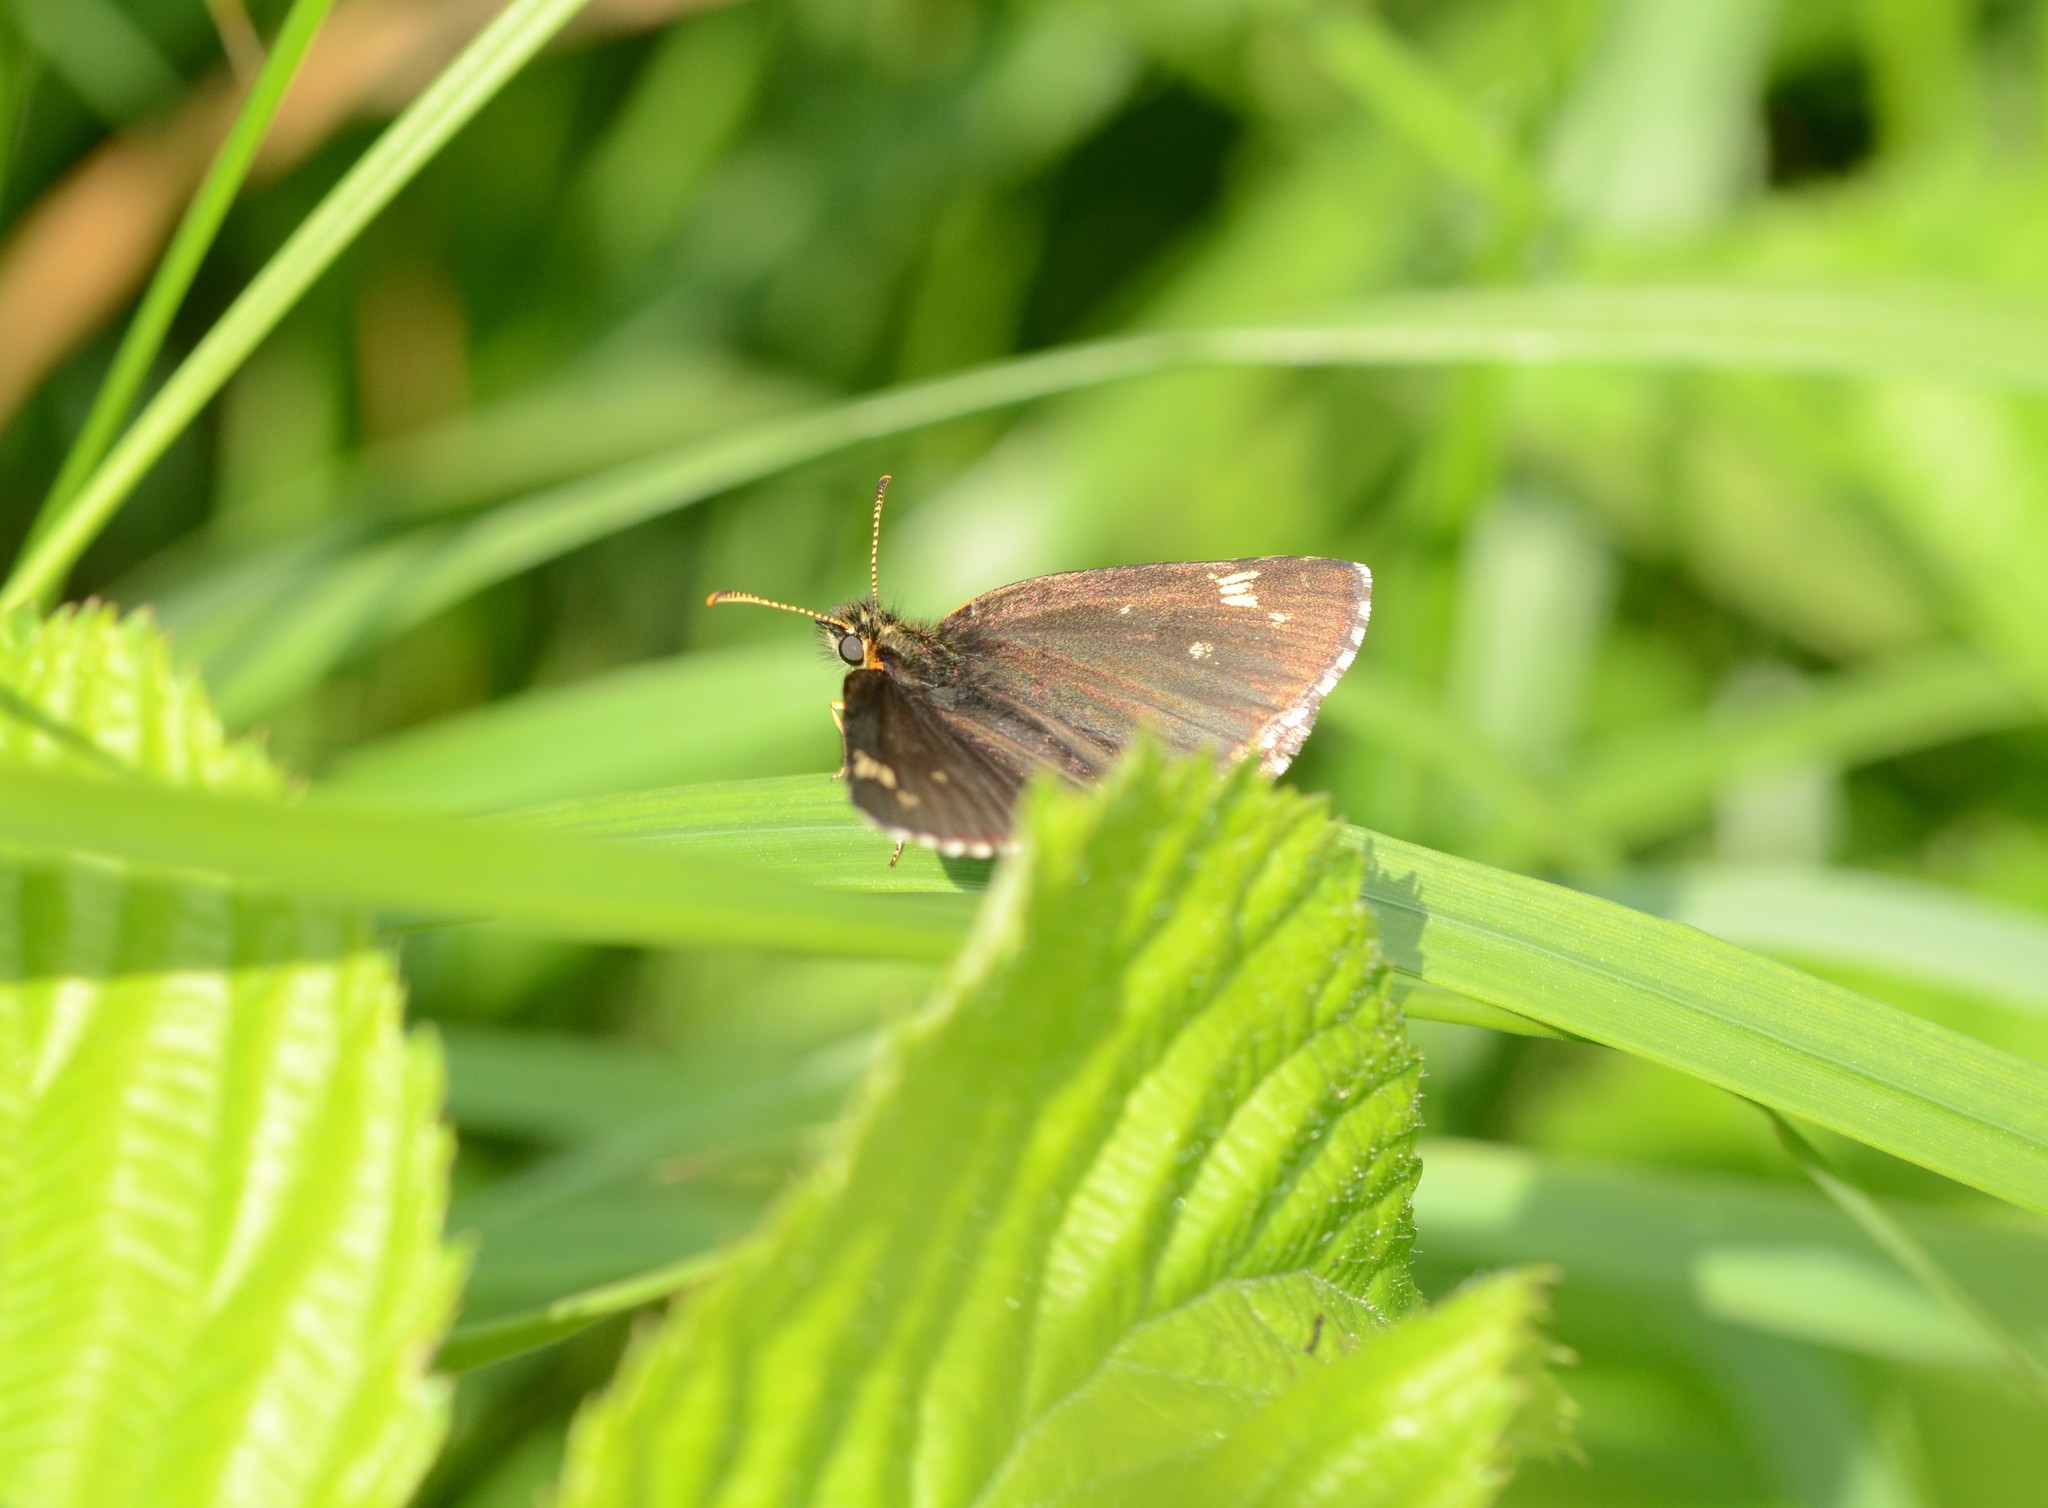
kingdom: Animalia
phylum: Arthropoda
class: Insecta
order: Lepidoptera
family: Hesperiidae
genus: Heteropterus
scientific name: Heteropterus morpheus
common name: Large chequered skipper
